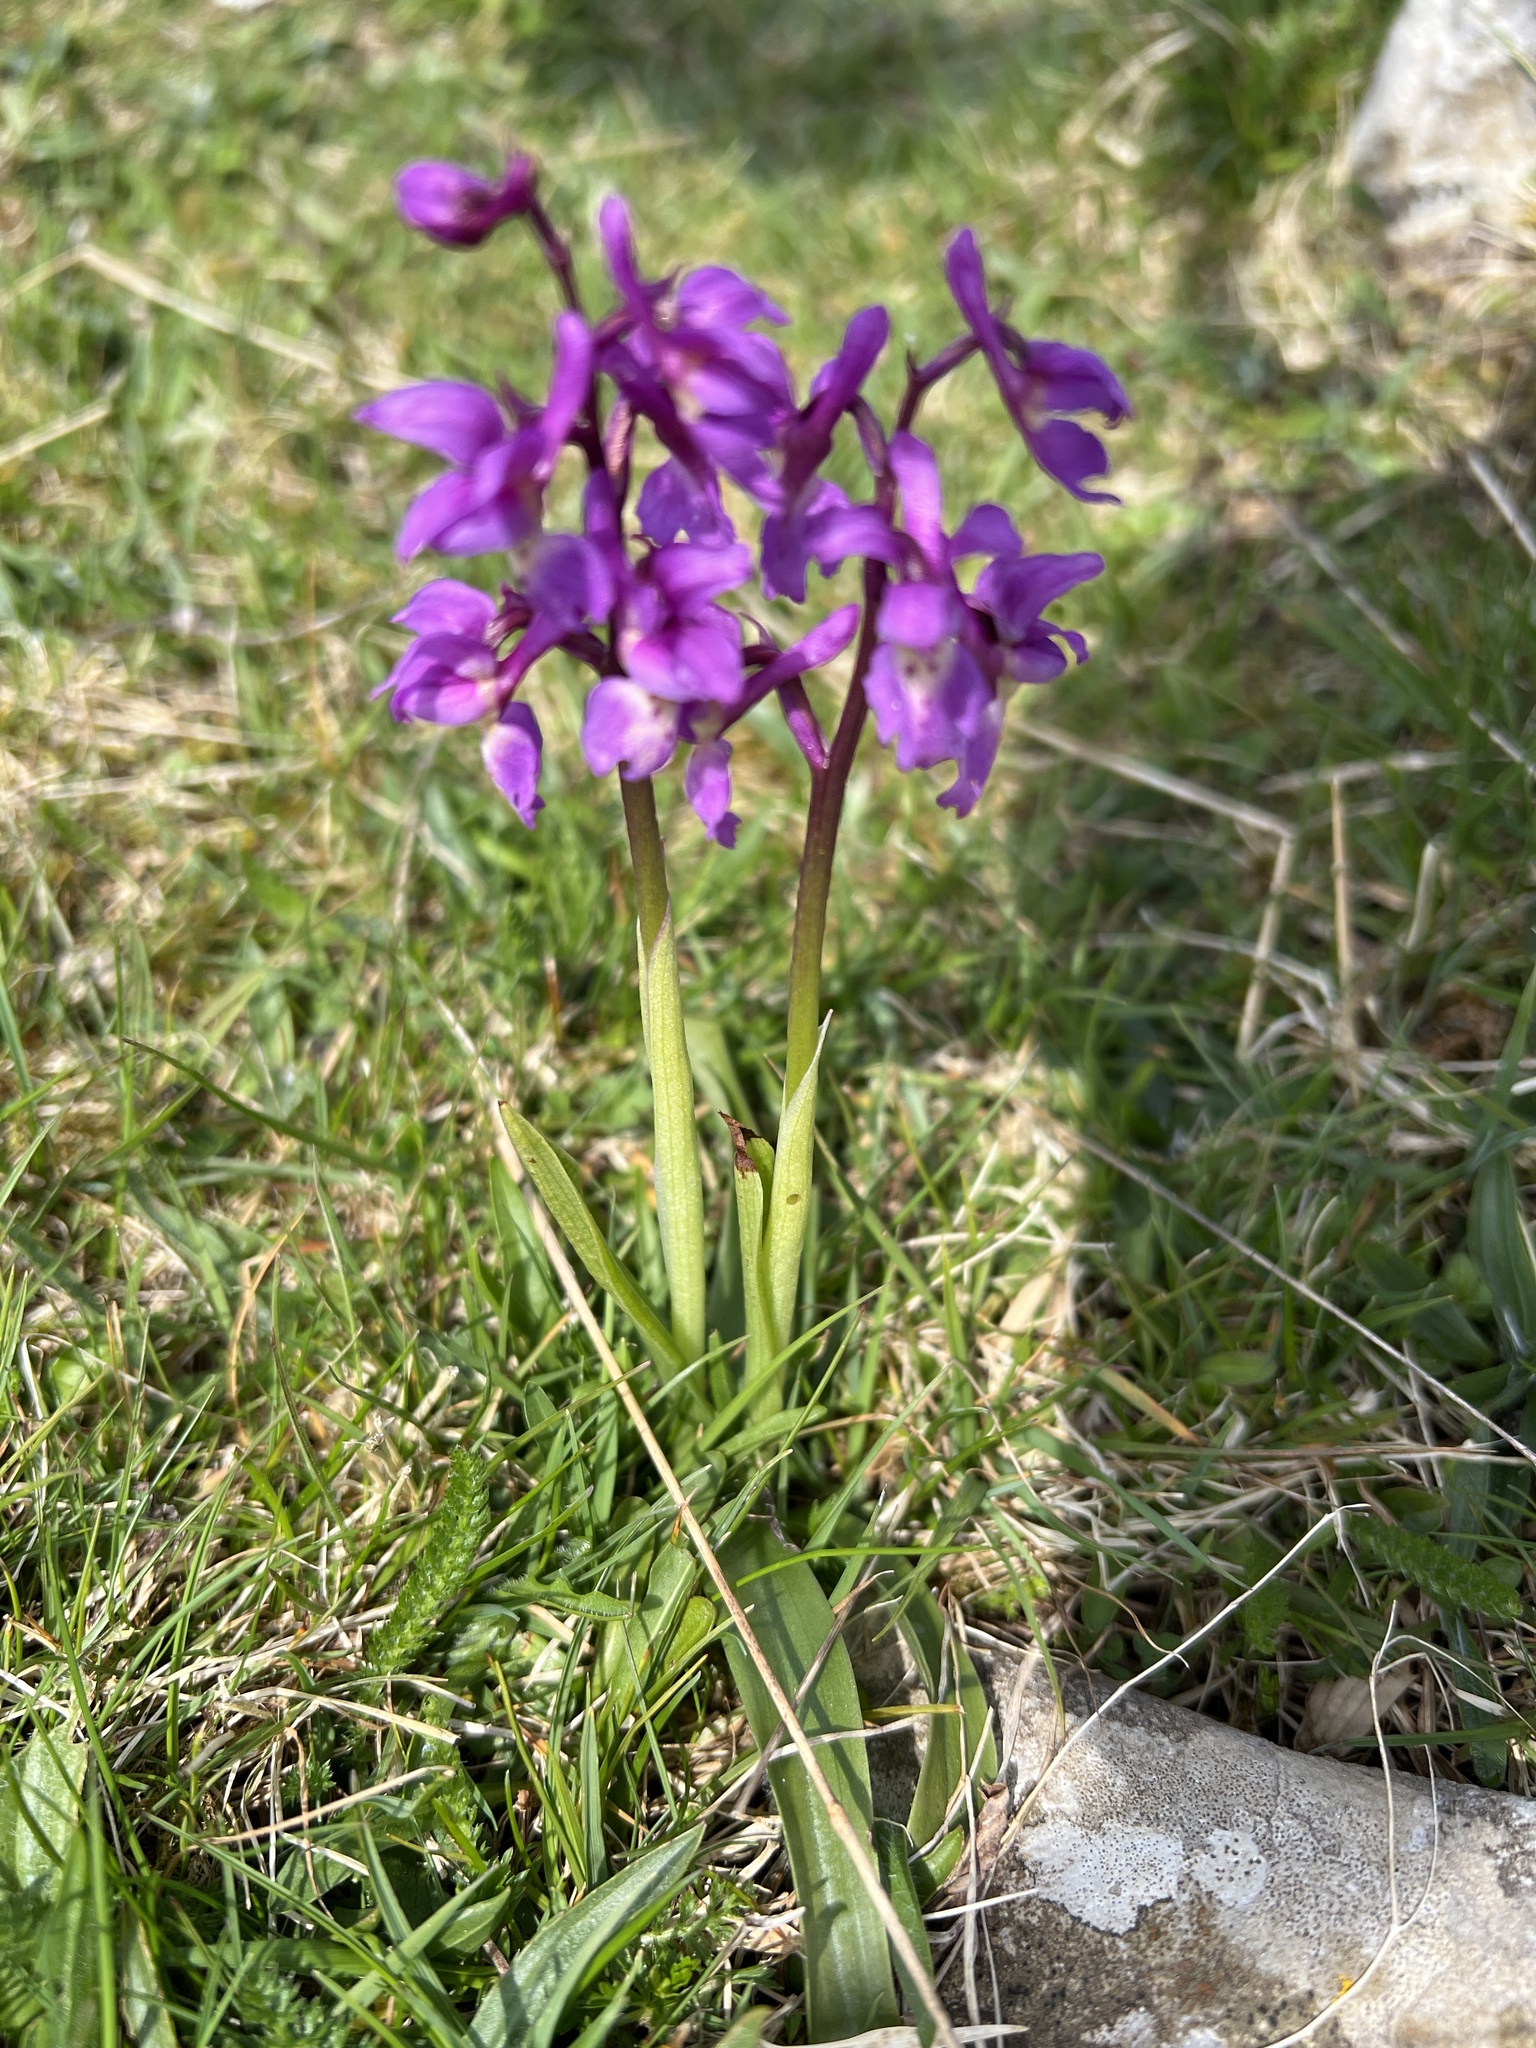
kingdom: Plantae
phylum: Tracheophyta
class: Liliopsida
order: Asparagales
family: Orchidaceae
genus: Orchis
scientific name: Orchis mascula
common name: Early-purple orchid
